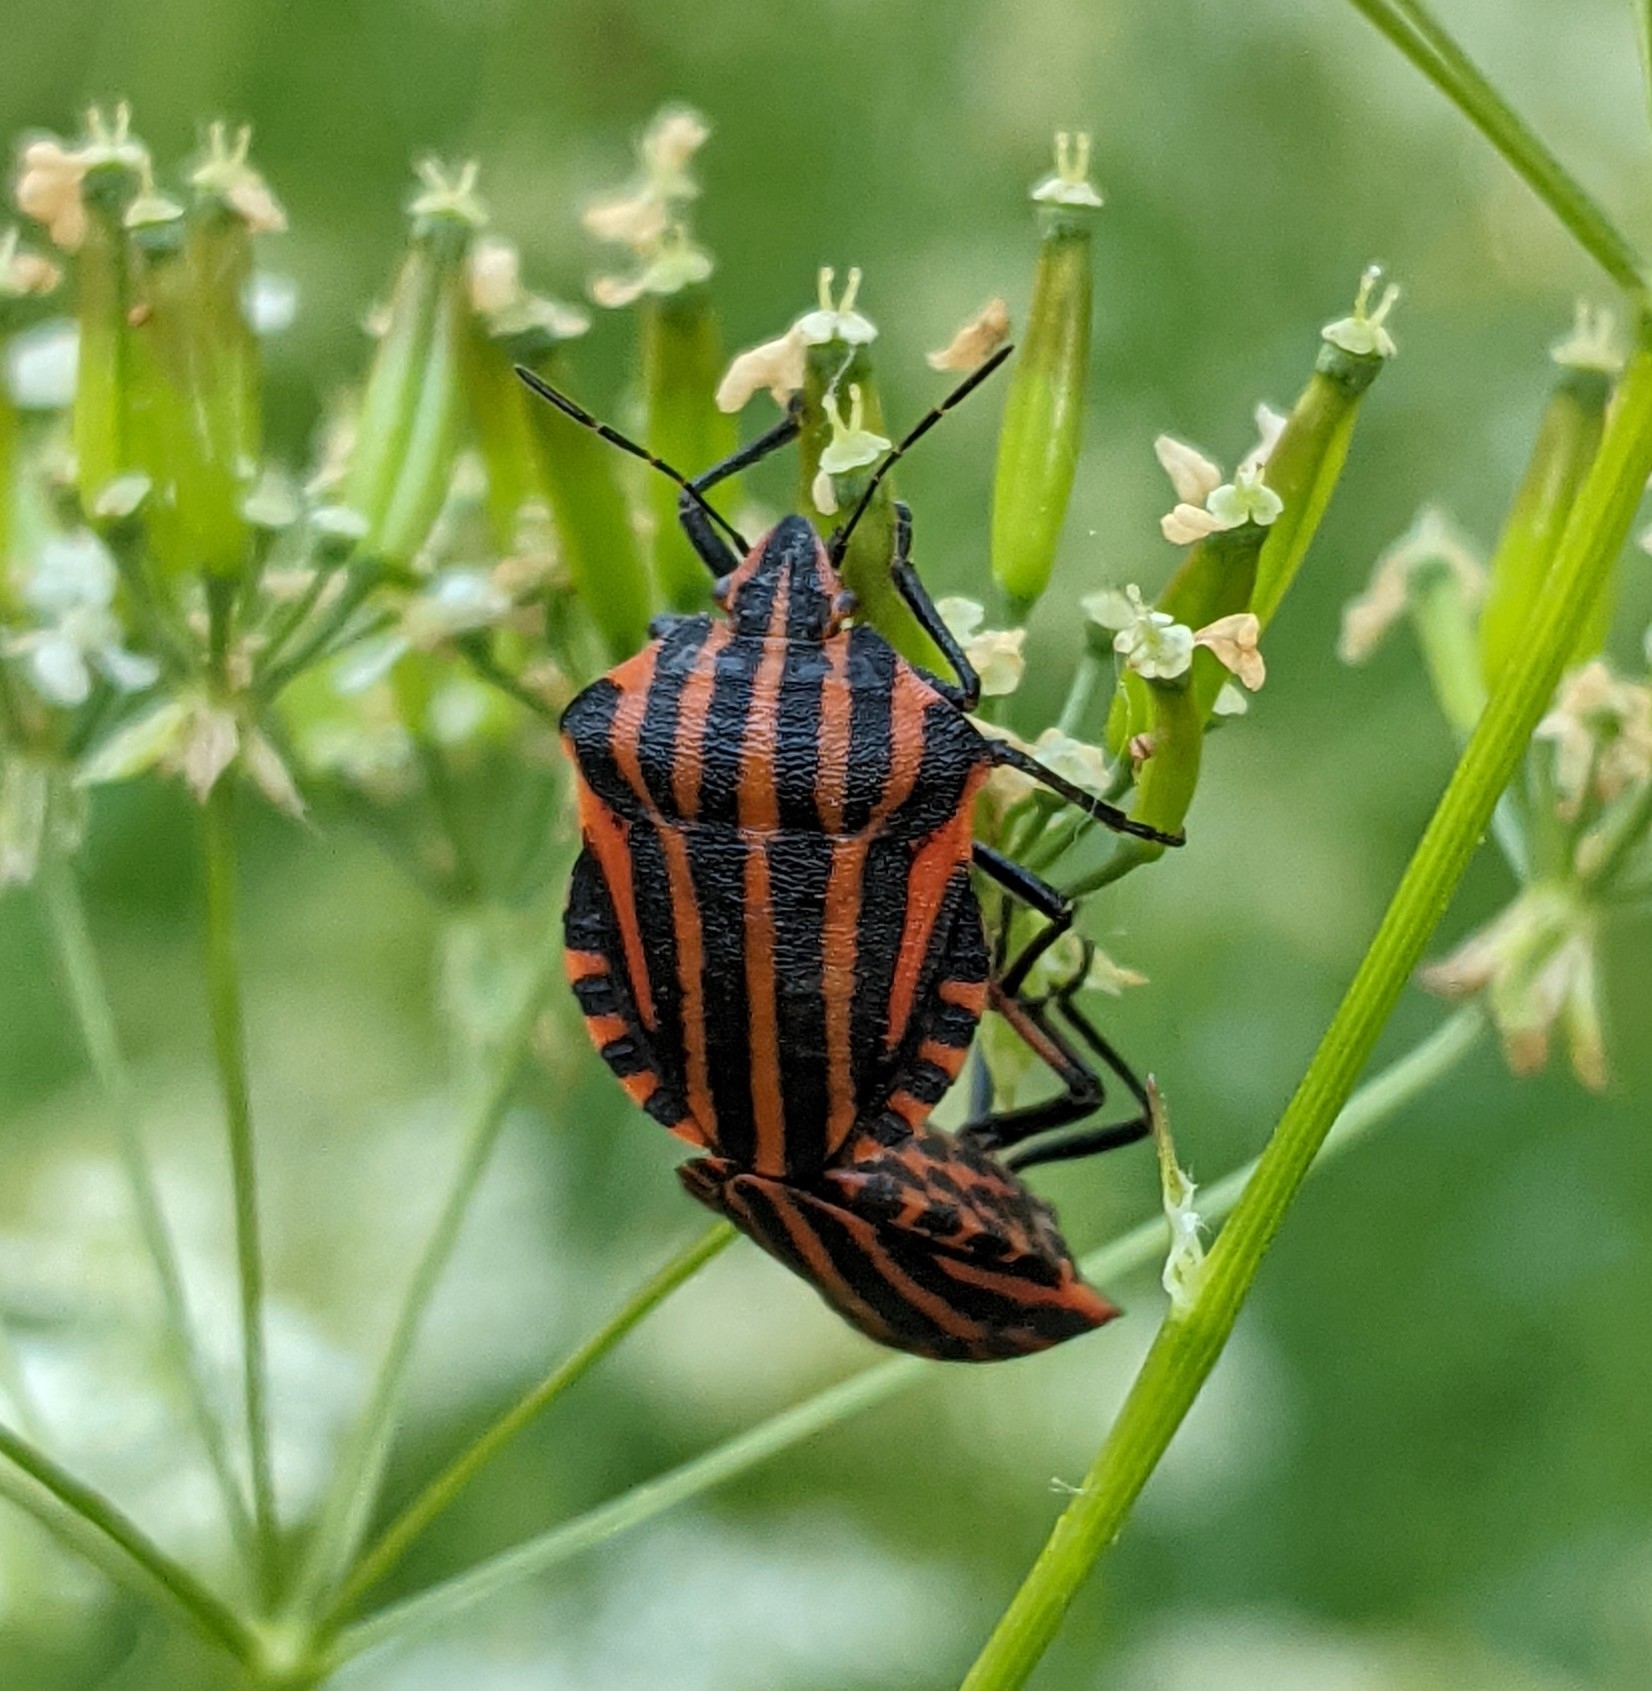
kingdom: Animalia
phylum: Arthropoda
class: Insecta
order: Hemiptera
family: Pentatomidae
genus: Graphosoma
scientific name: Graphosoma italicum
